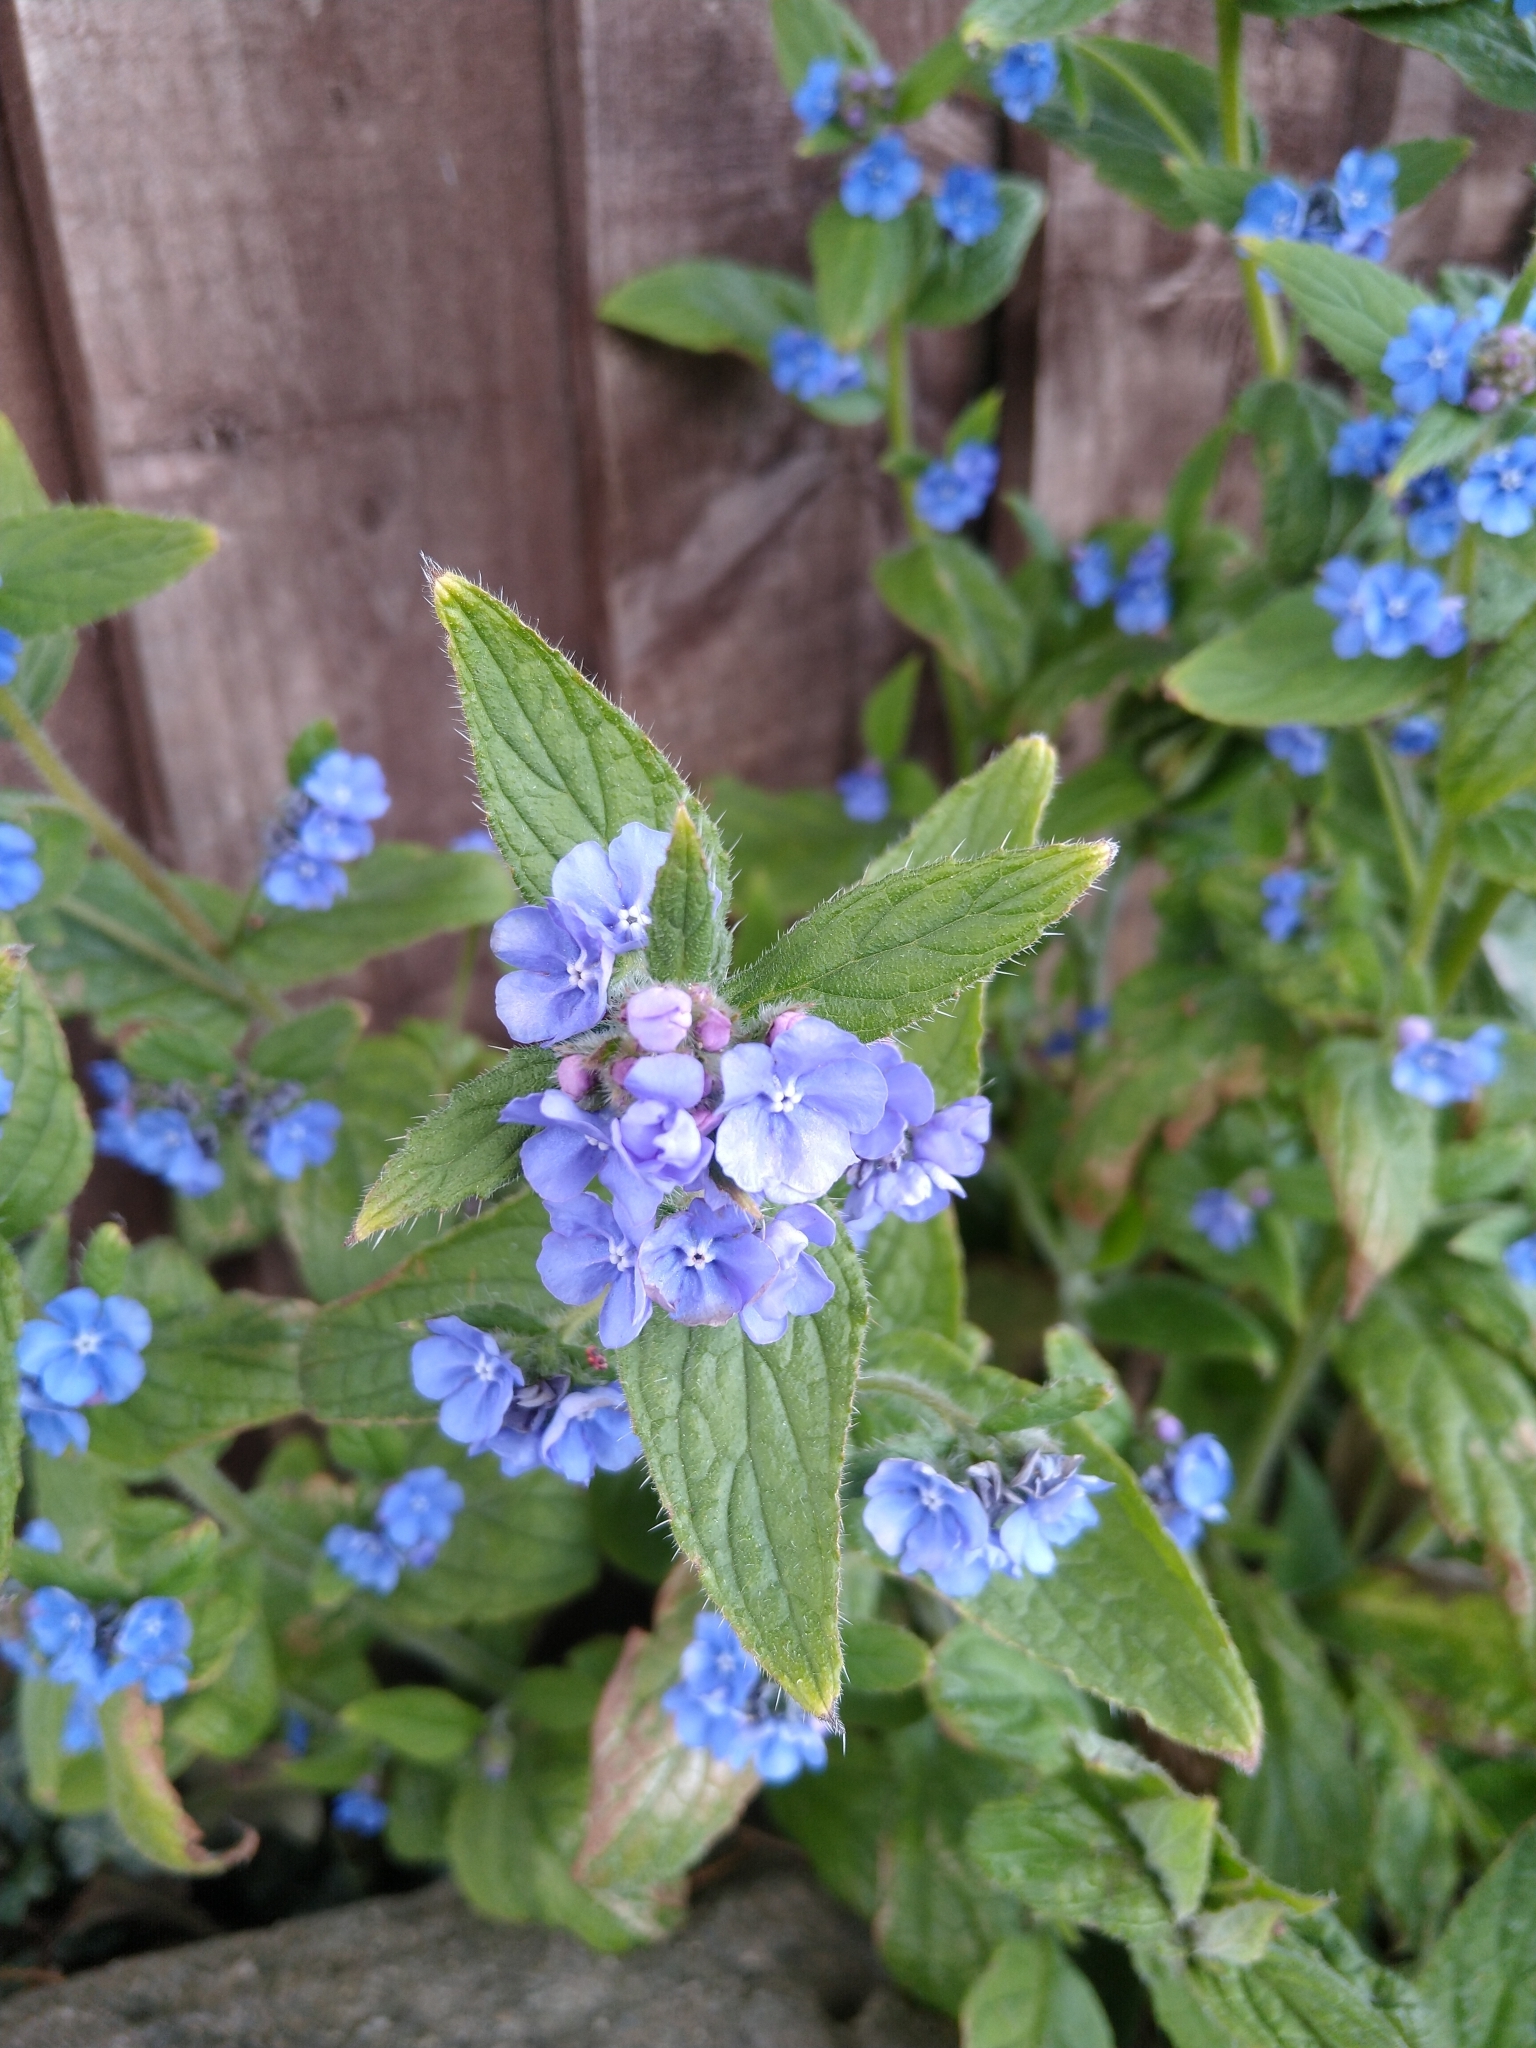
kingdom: Plantae
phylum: Tracheophyta
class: Magnoliopsida
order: Boraginales
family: Boraginaceae
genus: Pentaglottis
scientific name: Pentaglottis sempervirens
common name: Green alkanet
